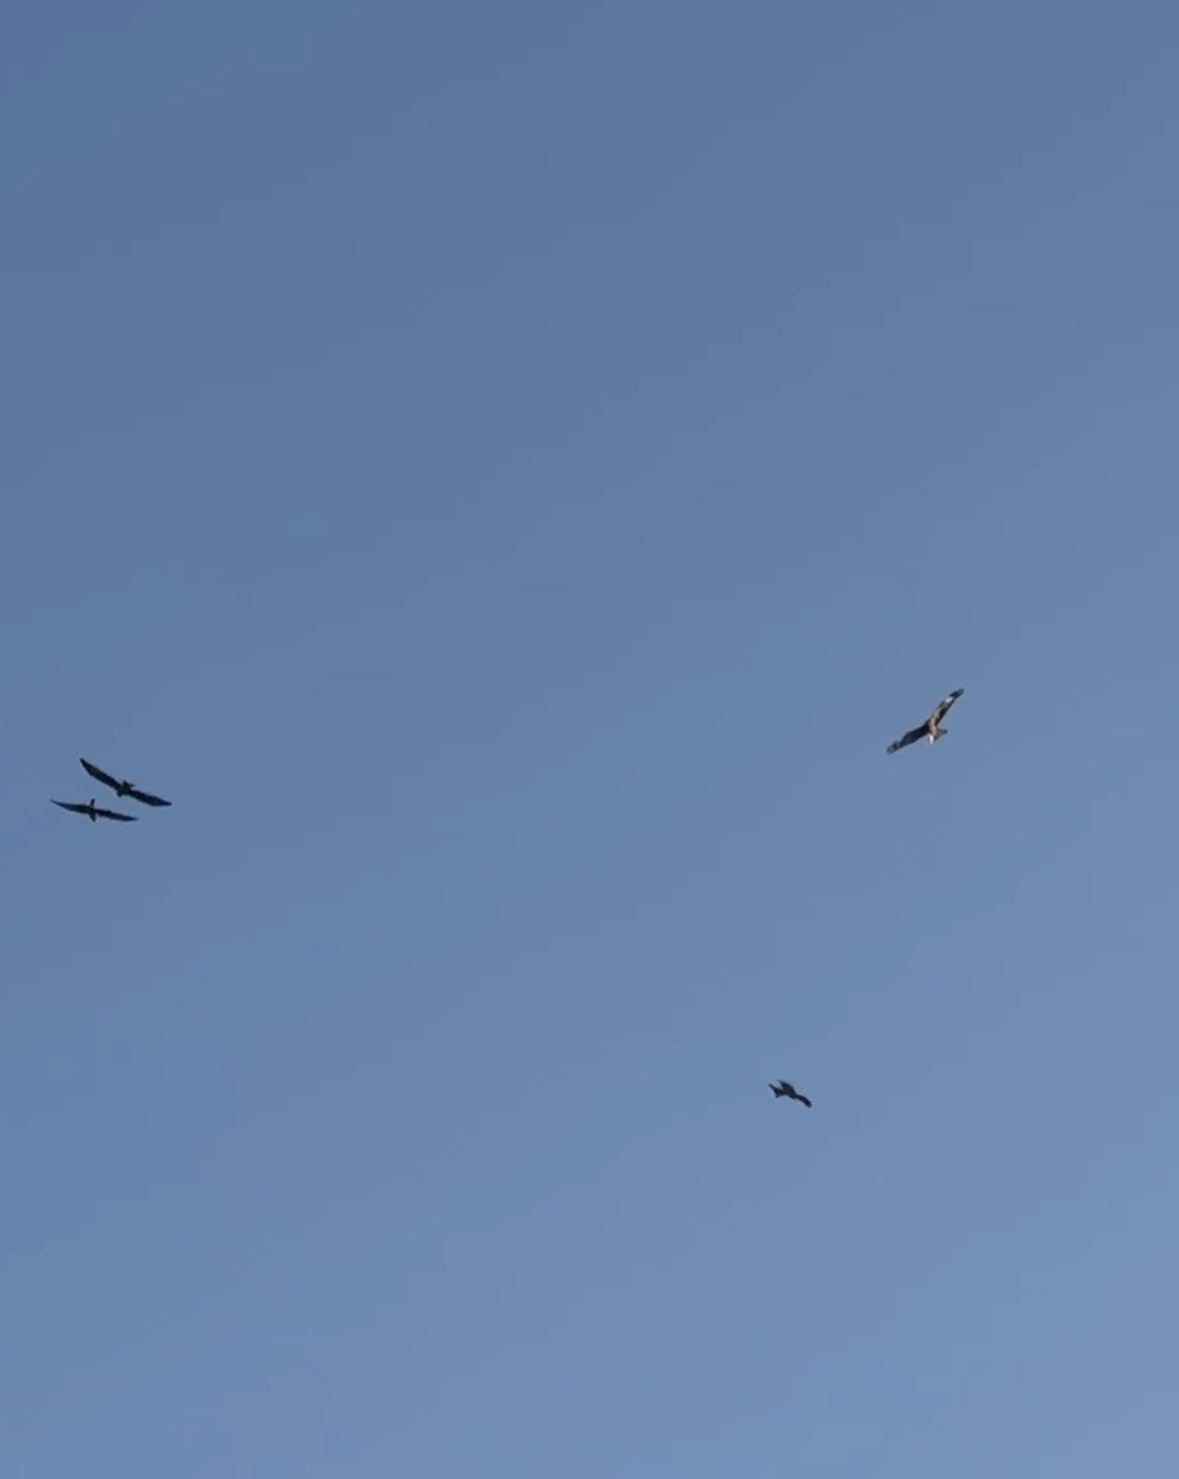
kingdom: Animalia
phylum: Chordata
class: Aves
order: Accipitriformes
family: Accipitridae
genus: Milvus
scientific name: Milvus milvus
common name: Red kite
